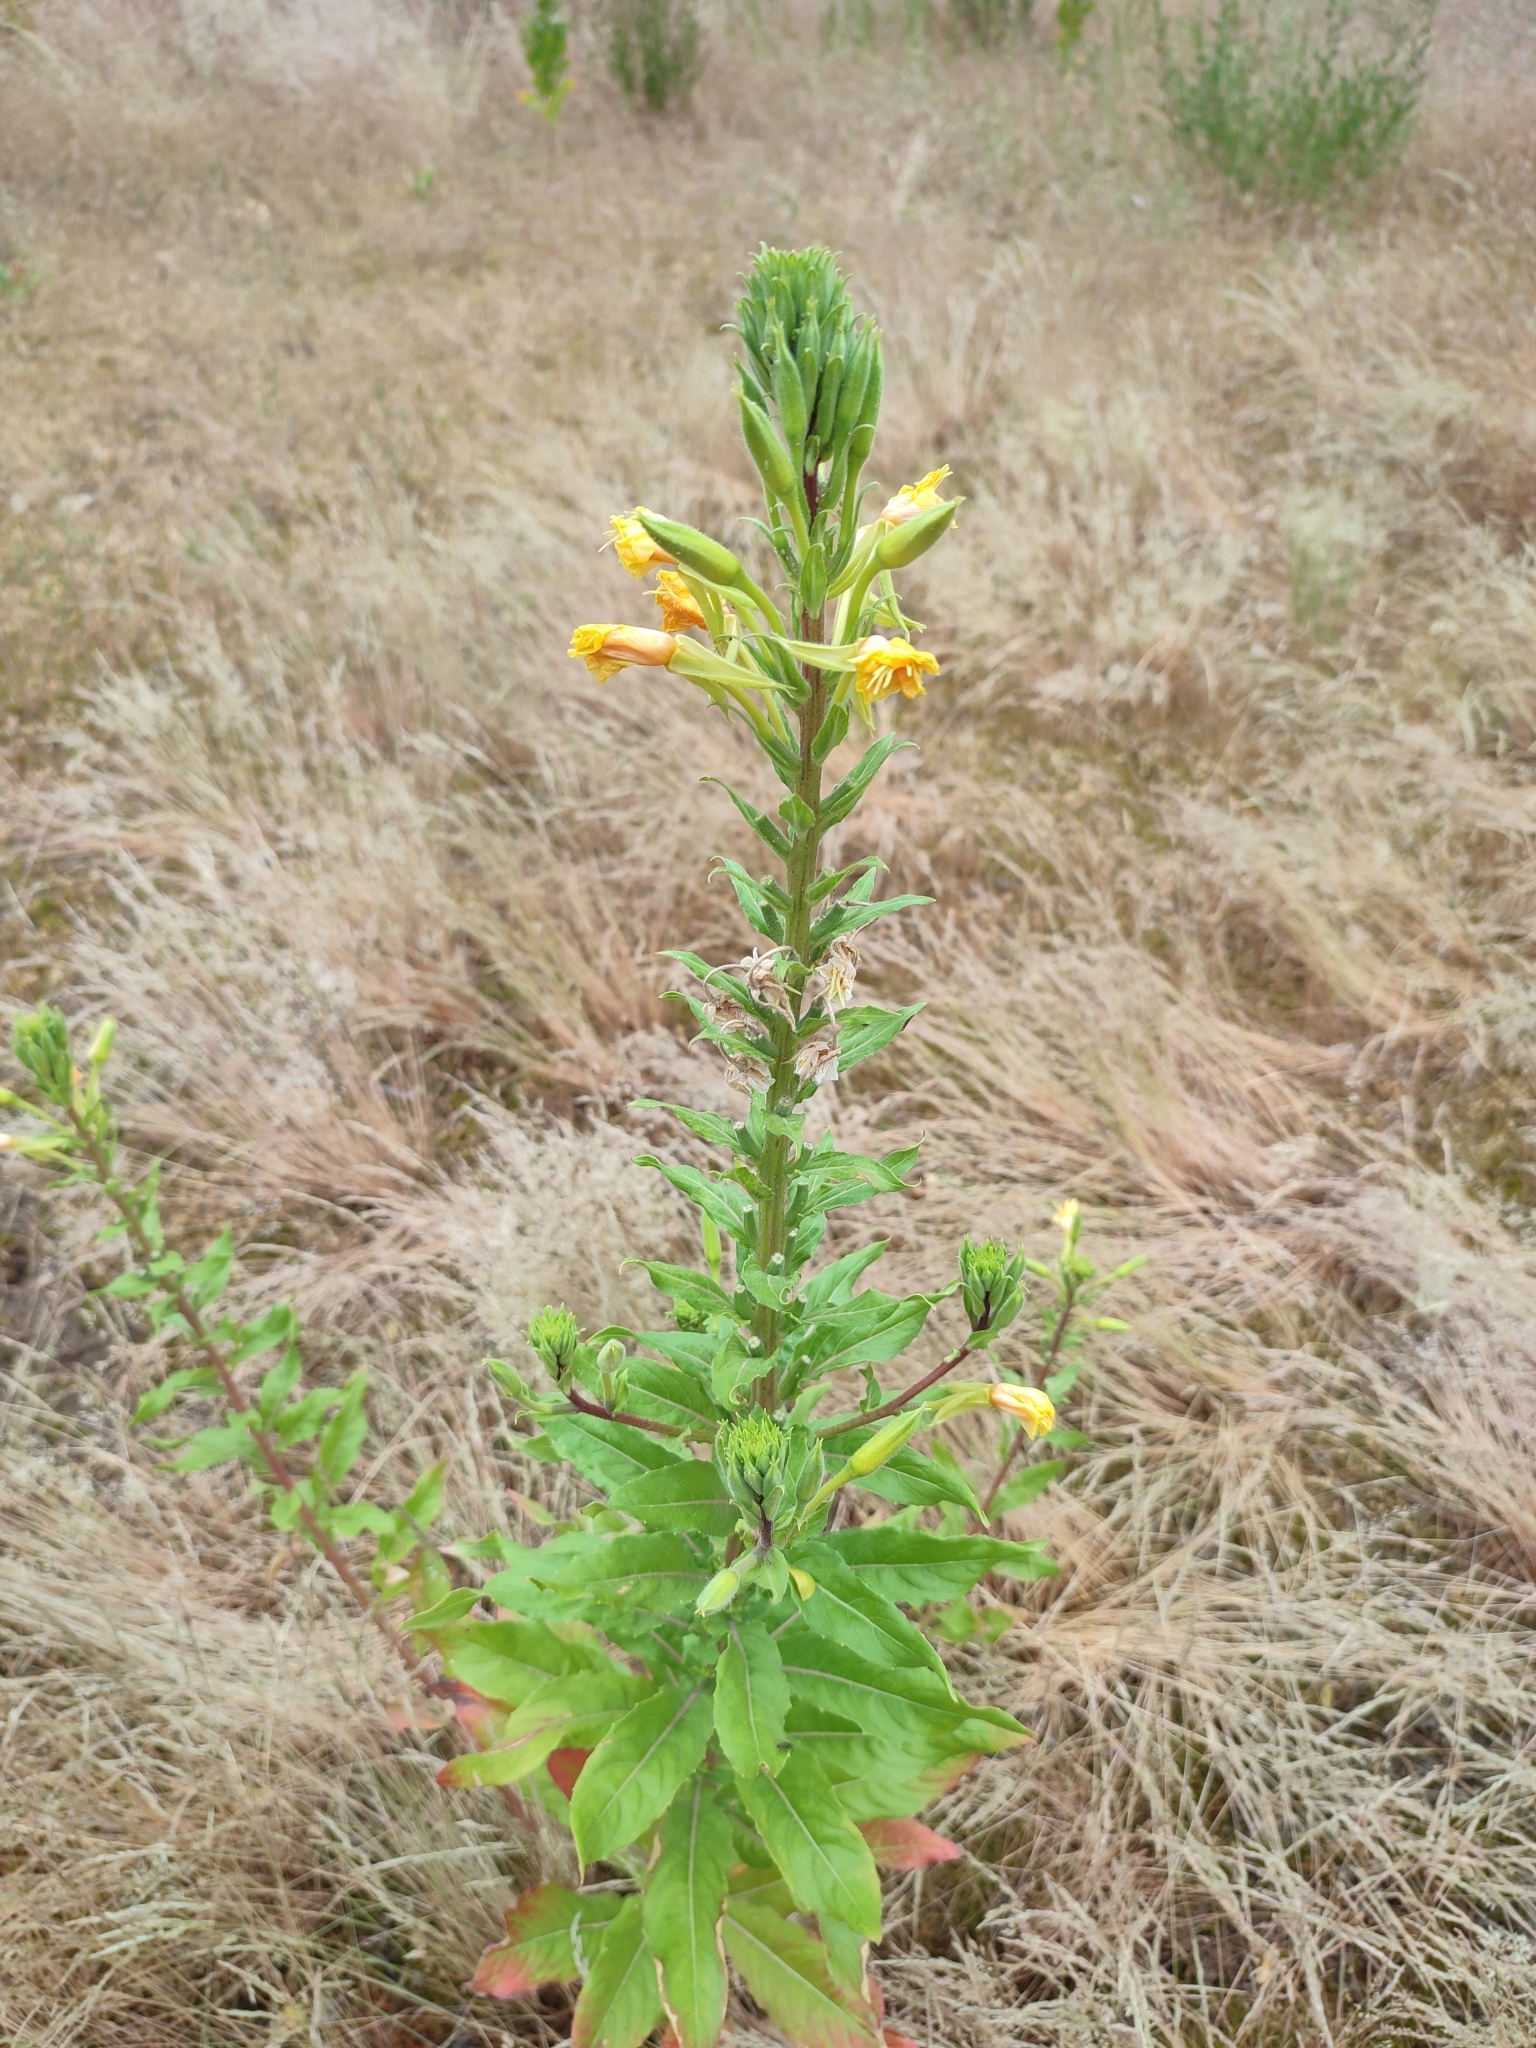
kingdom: Plantae
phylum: Tracheophyta
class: Magnoliopsida
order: Myrtales
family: Onagraceae
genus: Oenothera
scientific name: Oenothera rubricaulis
